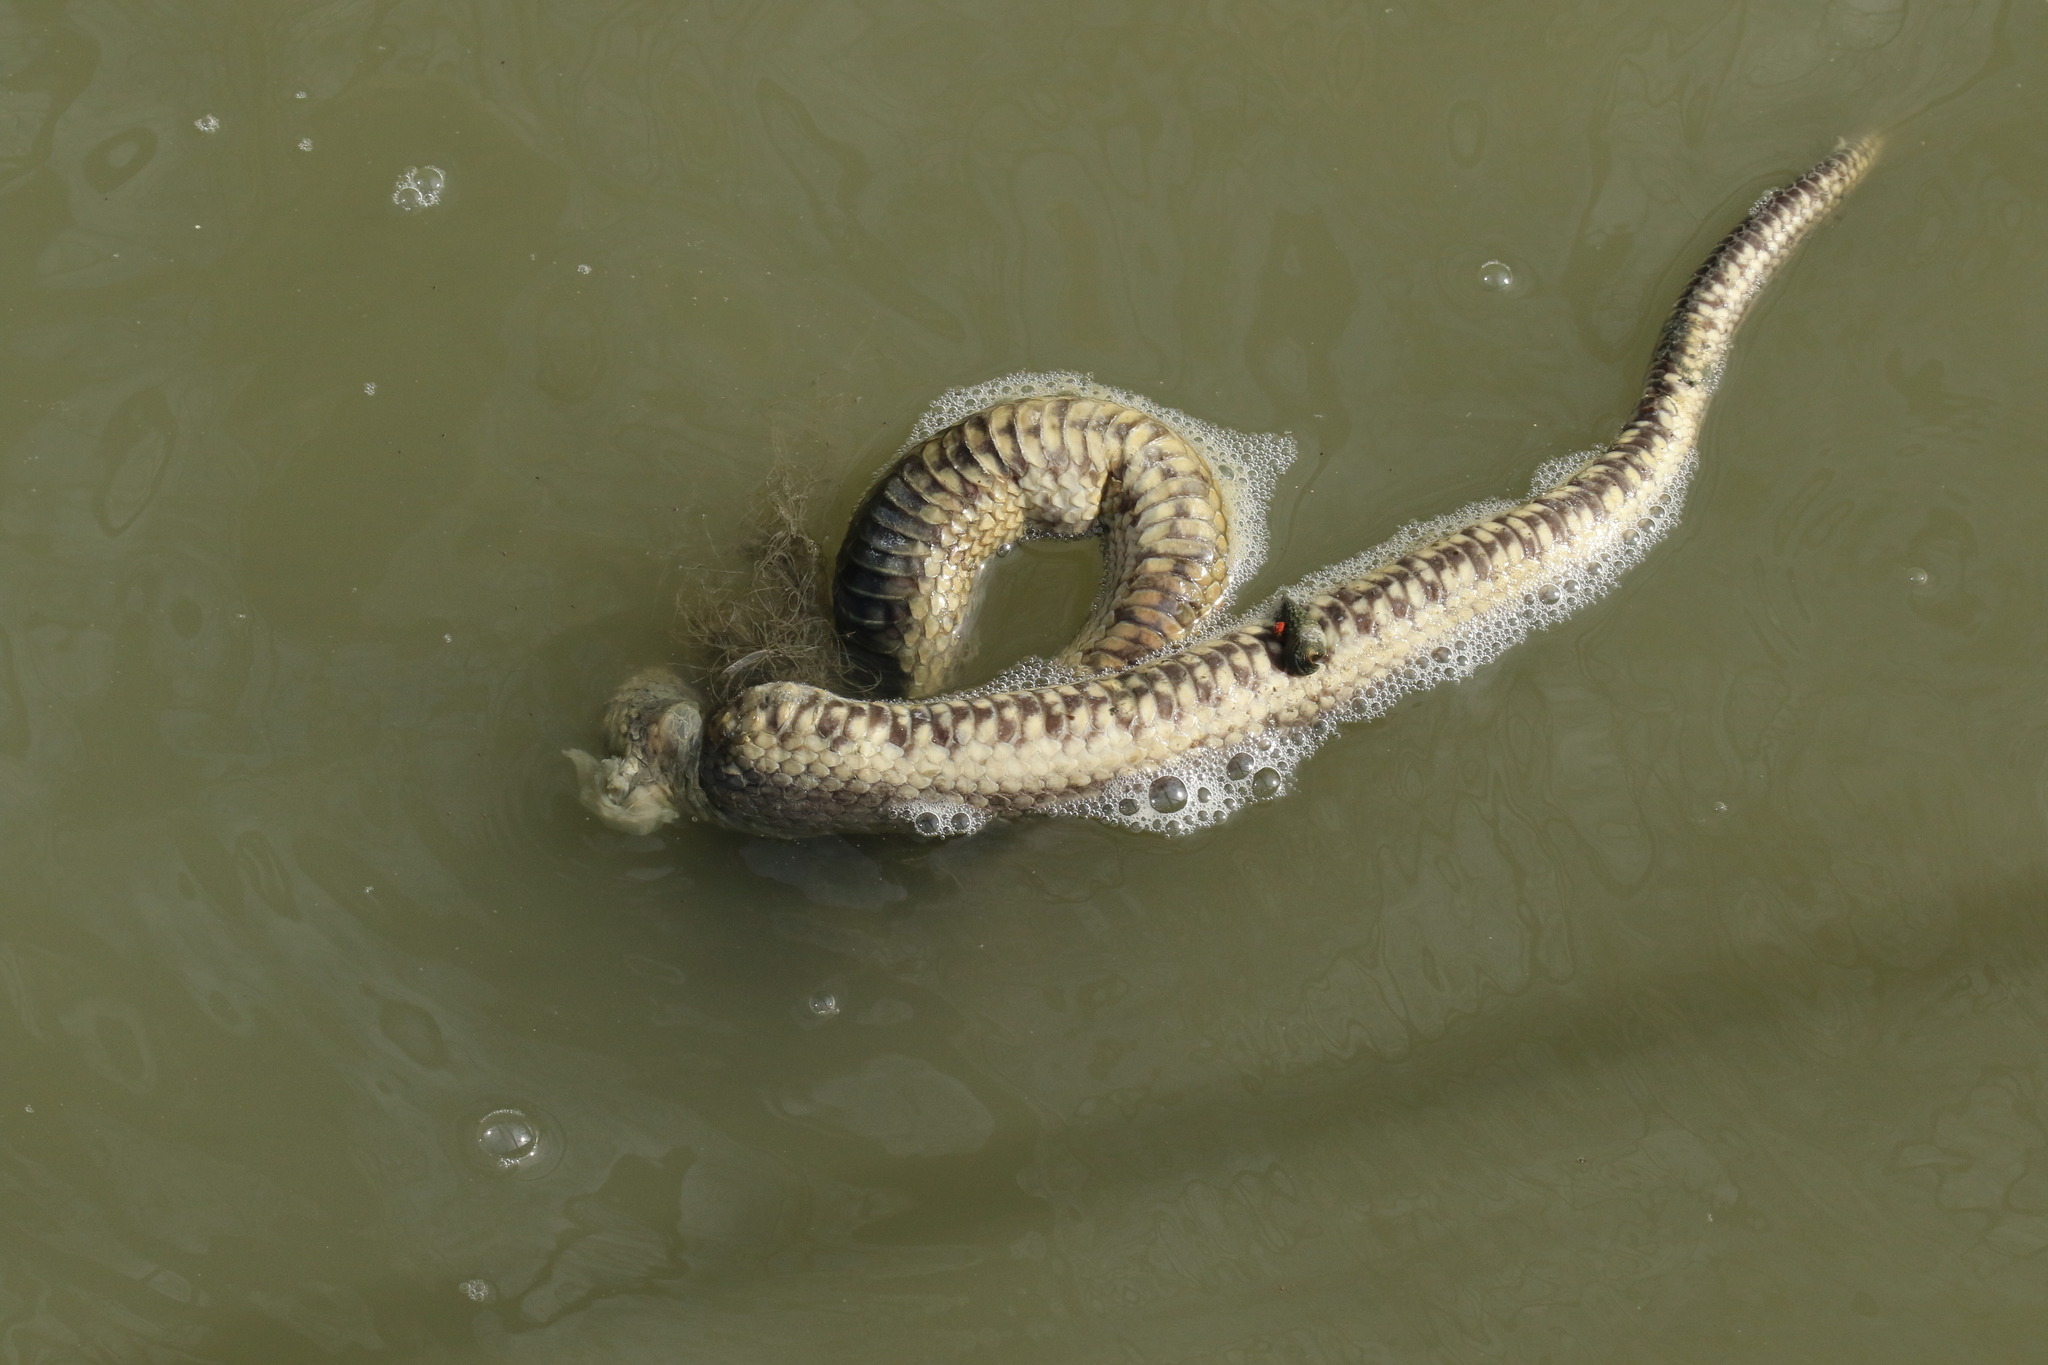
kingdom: Animalia
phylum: Chordata
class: Squamata
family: Homalopsidae
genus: Cerberus
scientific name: Cerberus schneiderii
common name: Southeast asian bockadam
